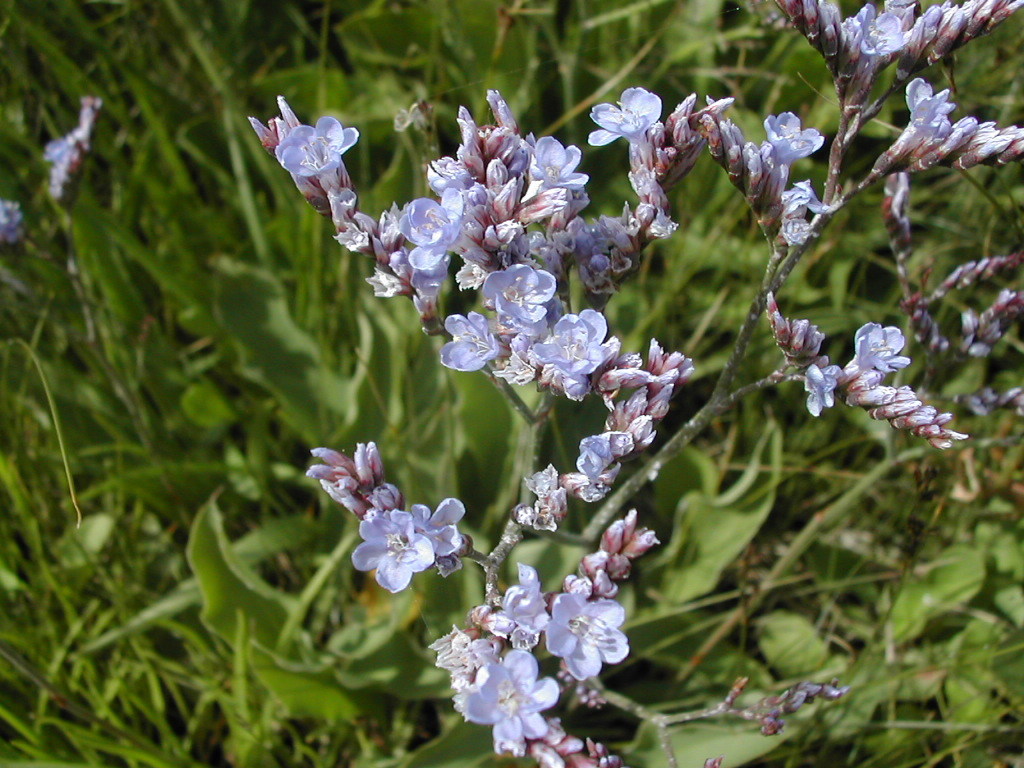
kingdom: Plantae
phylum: Tracheophyta
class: Magnoliopsida
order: Caryophyllales
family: Plumbaginaceae
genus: Limonium
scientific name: Limonium vulgare
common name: Common sea-lavender
